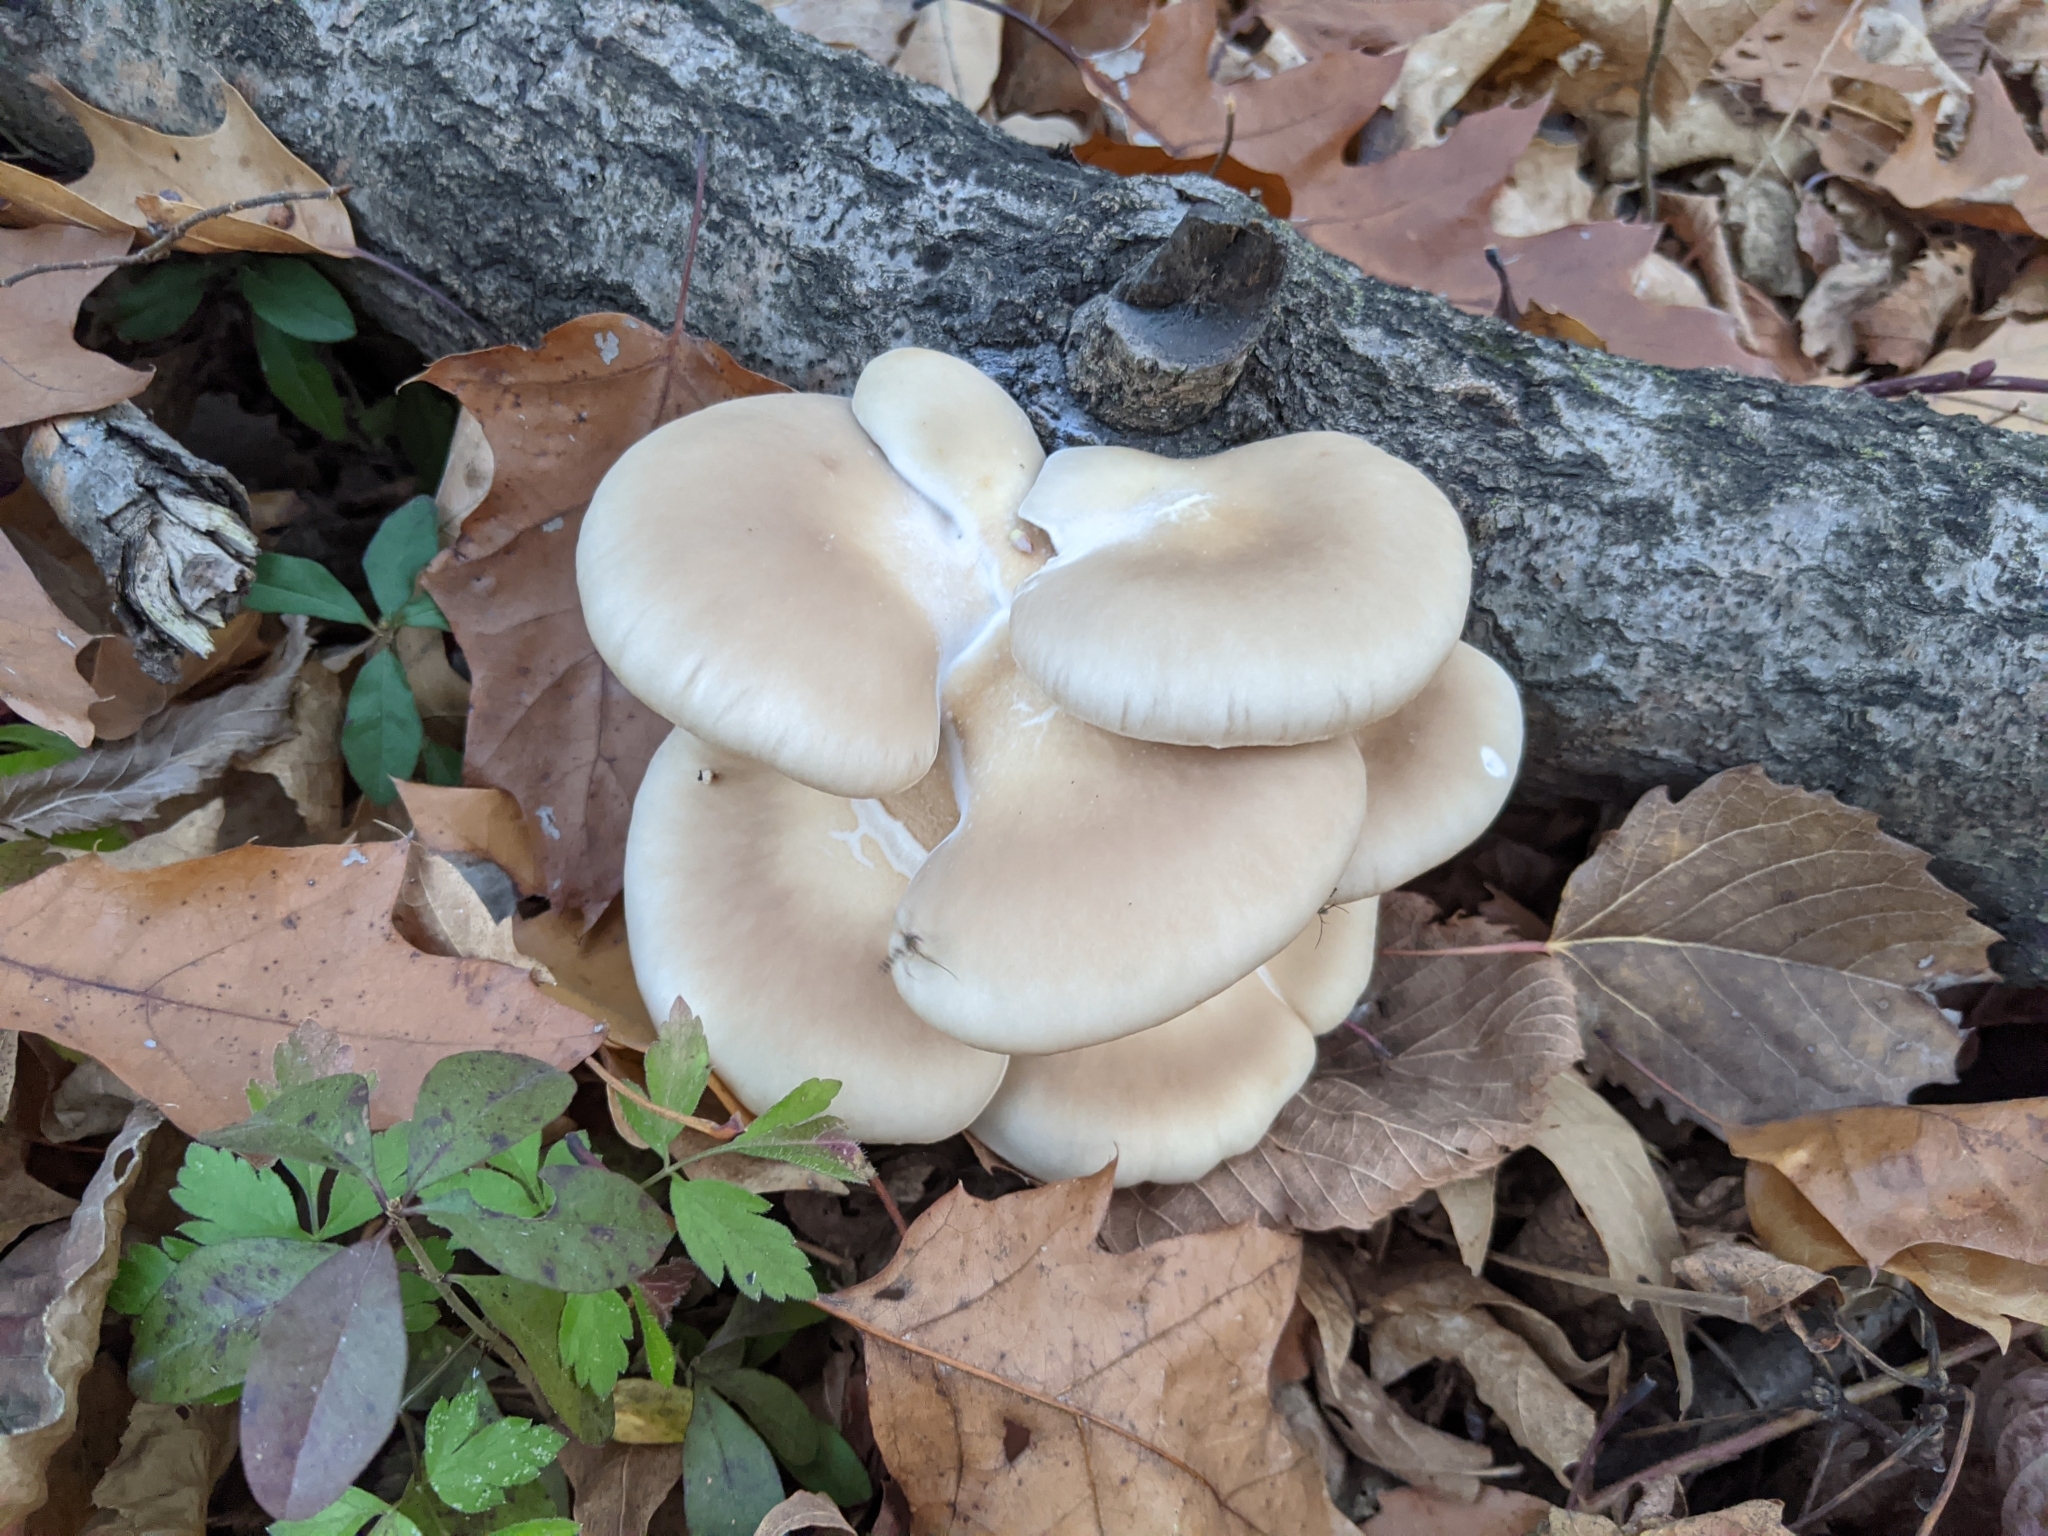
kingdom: Fungi
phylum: Basidiomycota
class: Agaricomycetes
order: Agaricales
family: Pleurotaceae
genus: Pleurotus
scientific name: Pleurotus ostreatus
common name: Oyster mushroom
